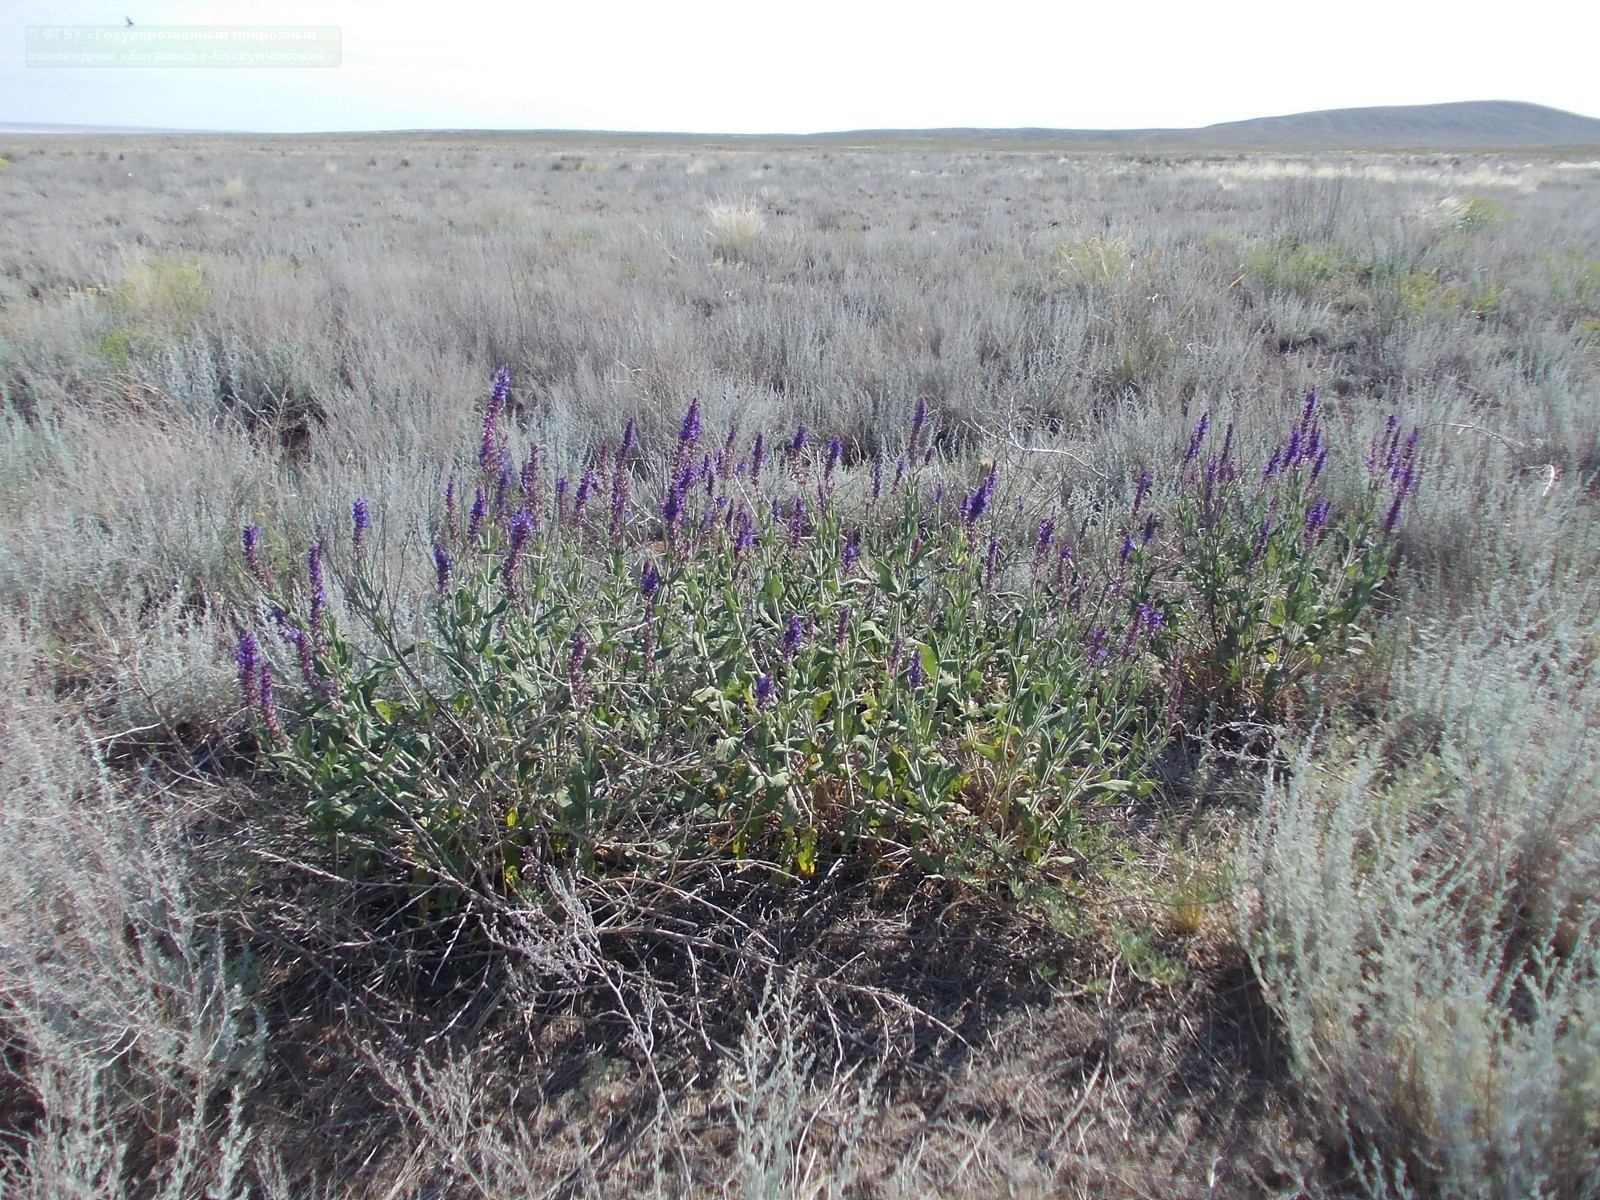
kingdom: Plantae
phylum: Tracheophyta
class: Magnoliopsida
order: Lamiales
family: Lamiaceae
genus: Salvia
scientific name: Salvia nemorosa
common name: Balkan clary
